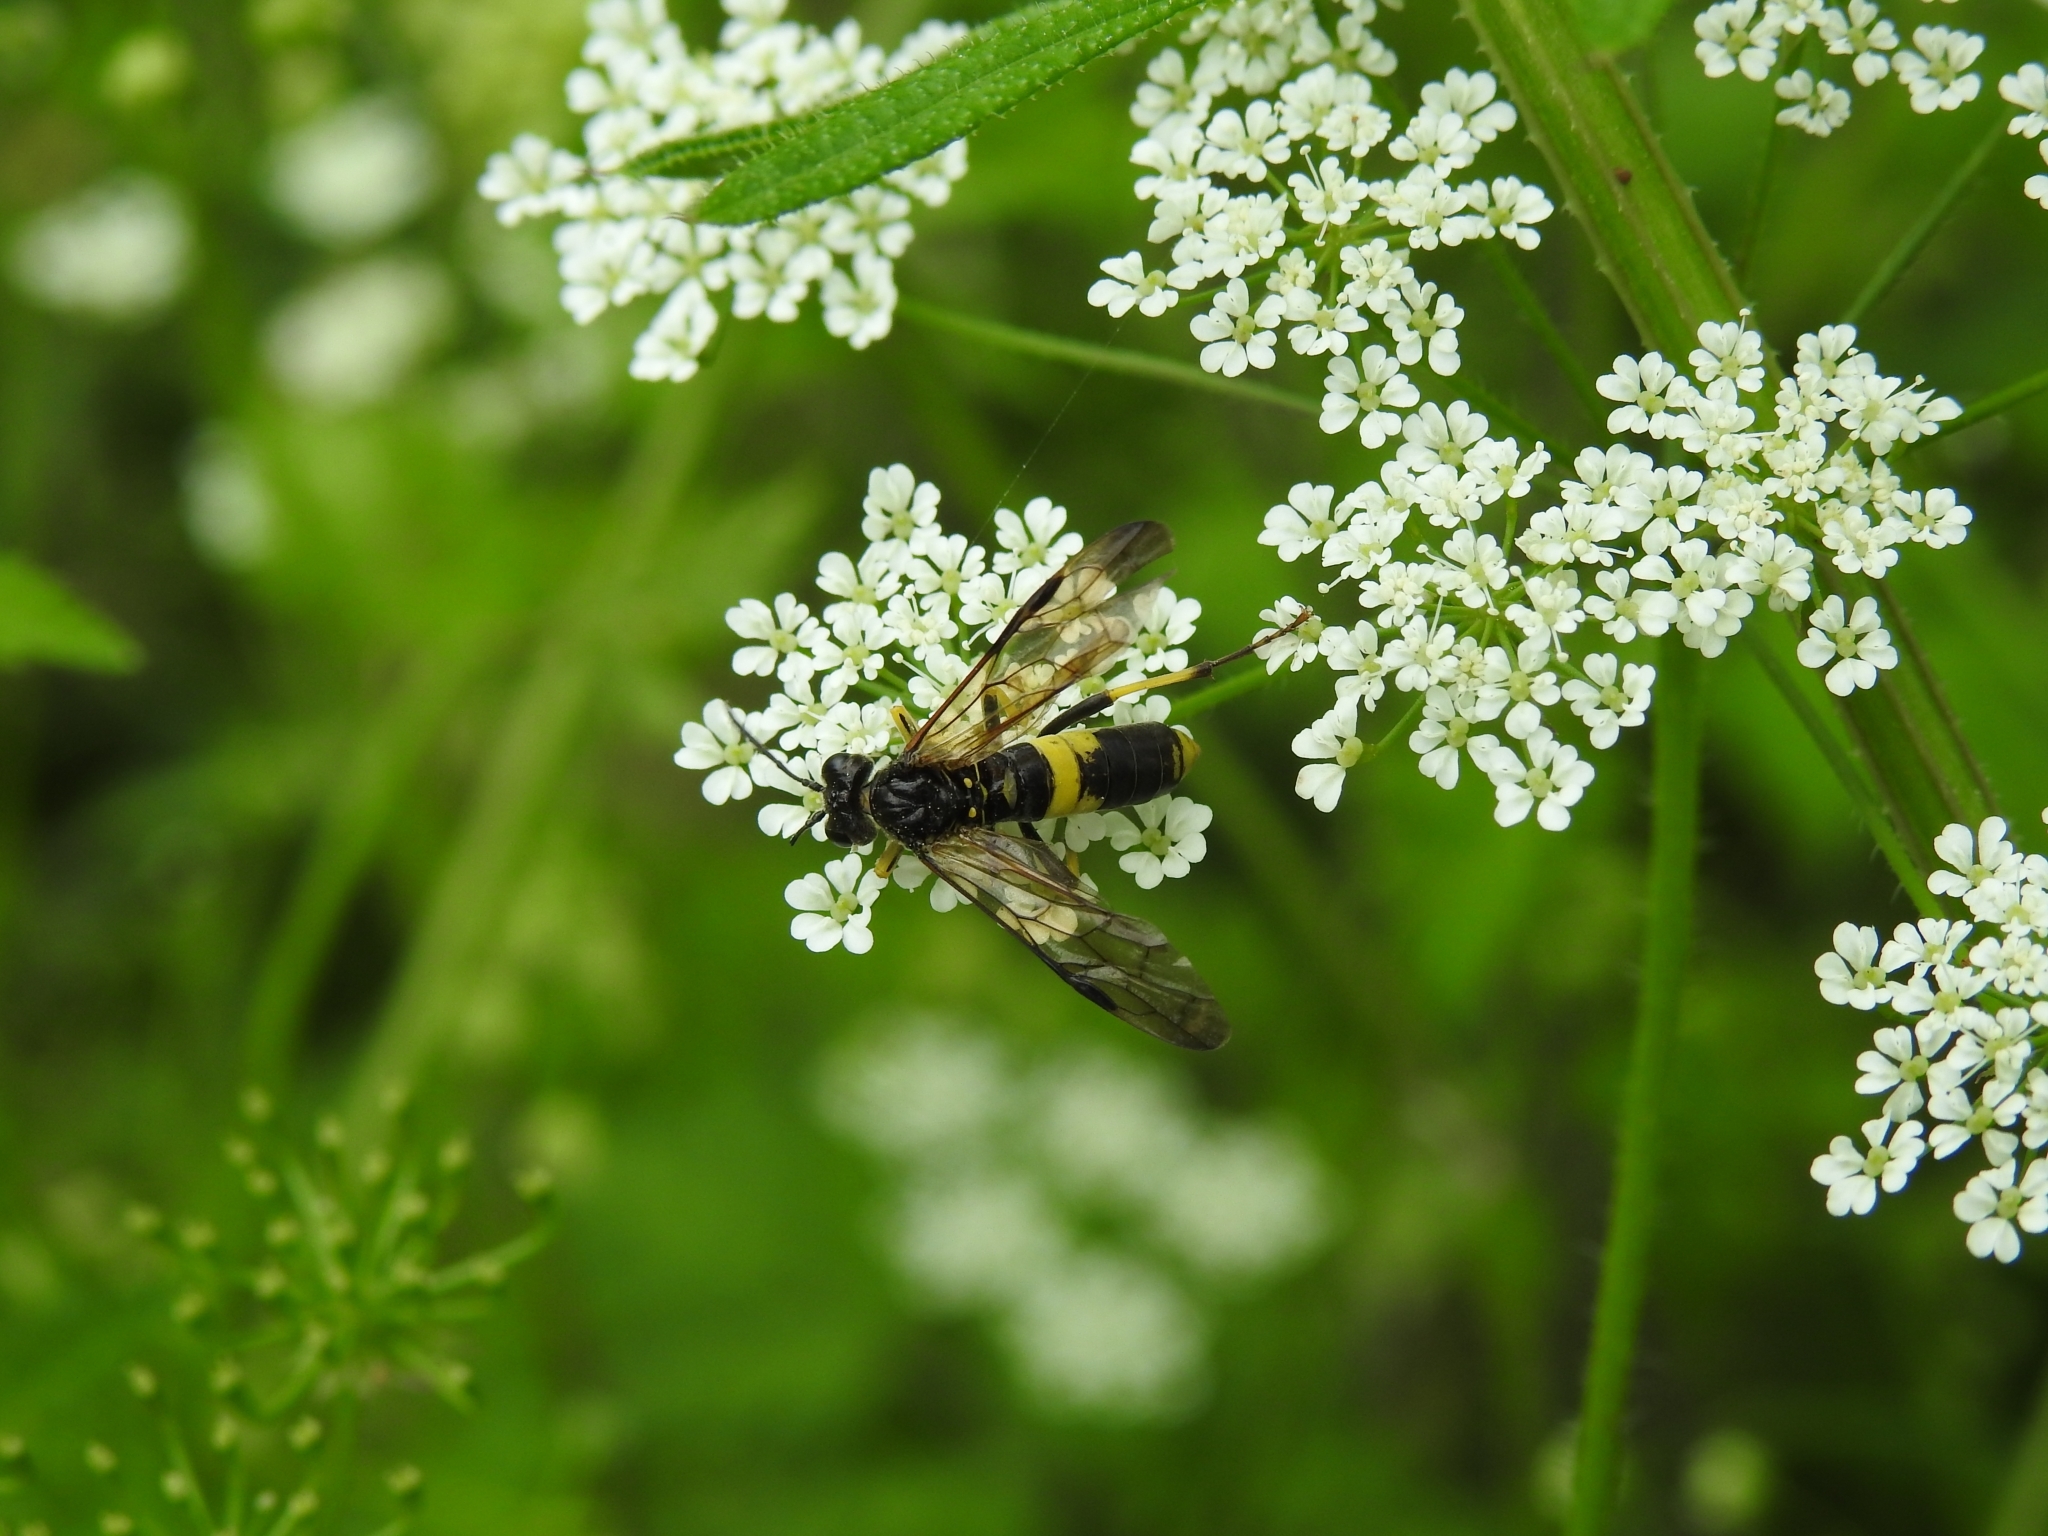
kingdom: Animalia
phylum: Arthropoda
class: Insecta
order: Hymenoptera
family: Tenthredinidae
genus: Tenthredo
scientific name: Tenthredo temula
